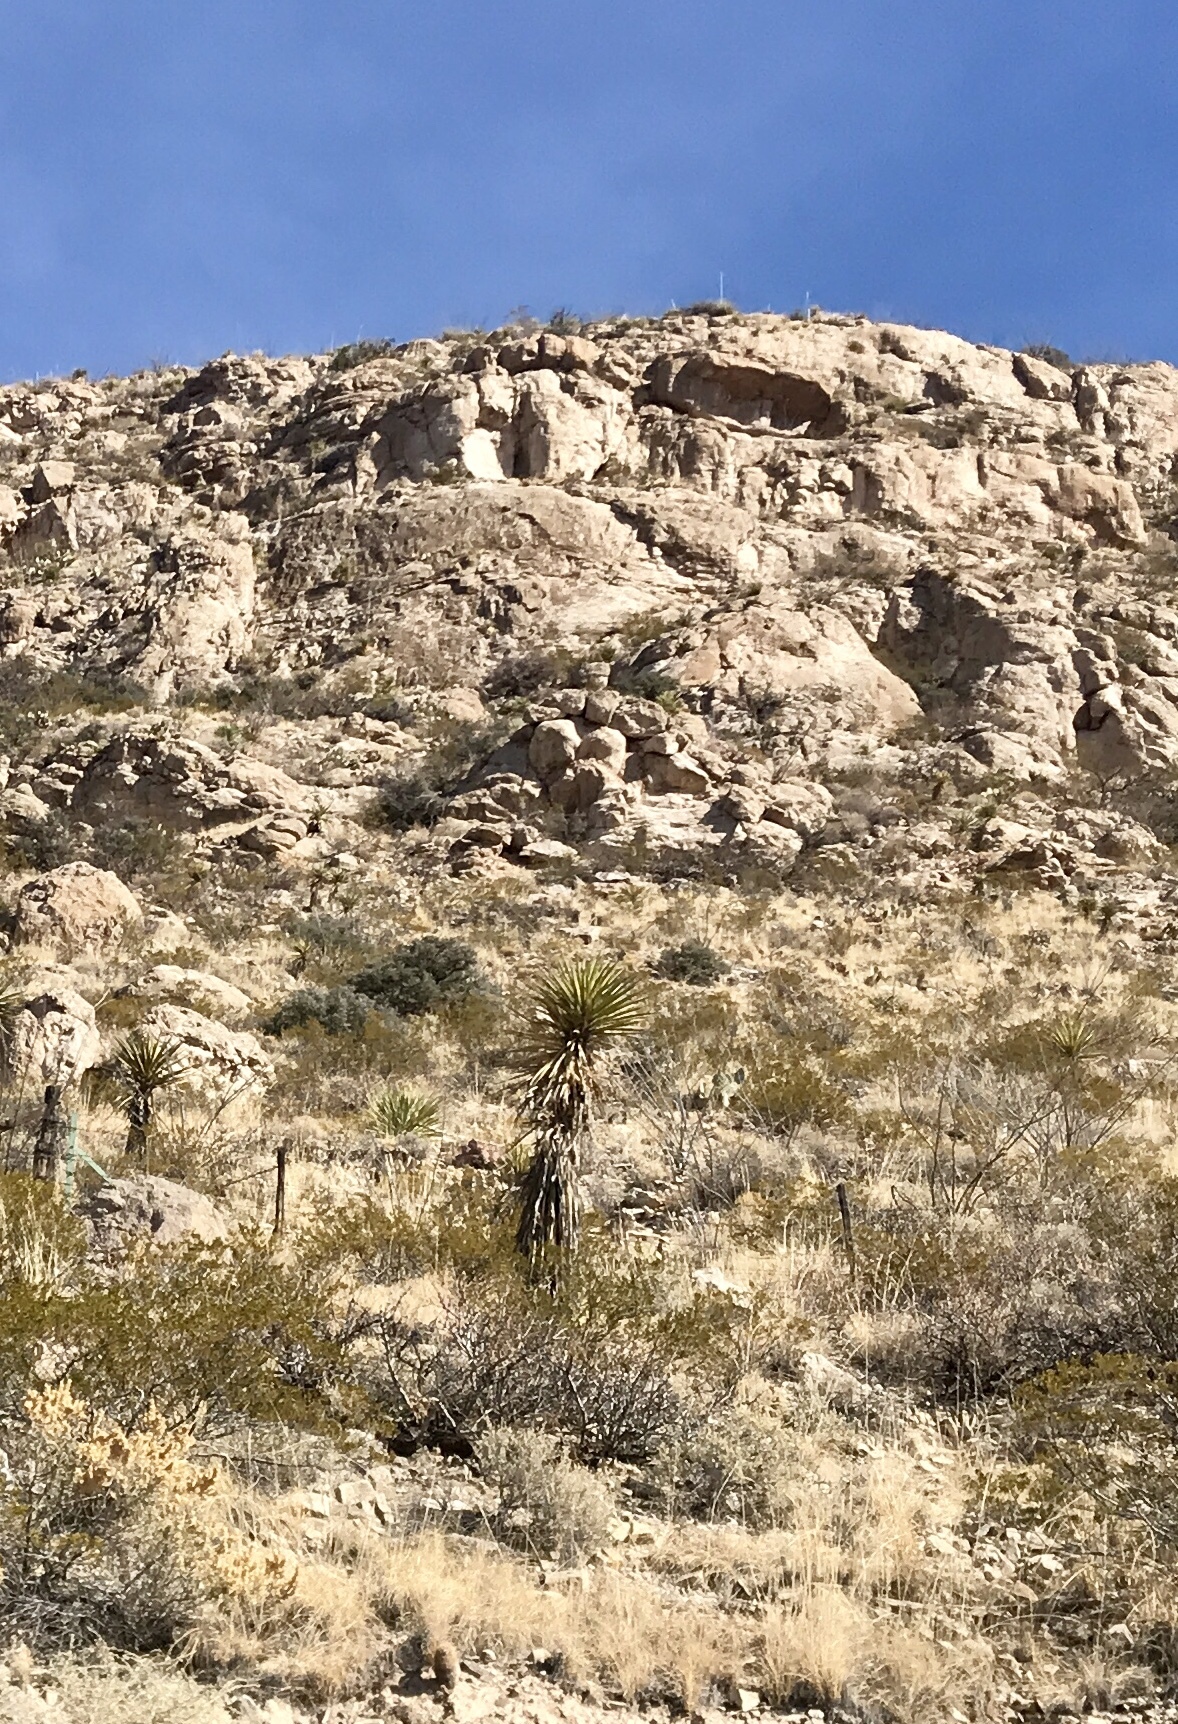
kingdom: Plantae
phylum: Tracheophyta
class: Liliopsida
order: Asparagales
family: Asparagaceae
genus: Yucca
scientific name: Yucca treculiana
